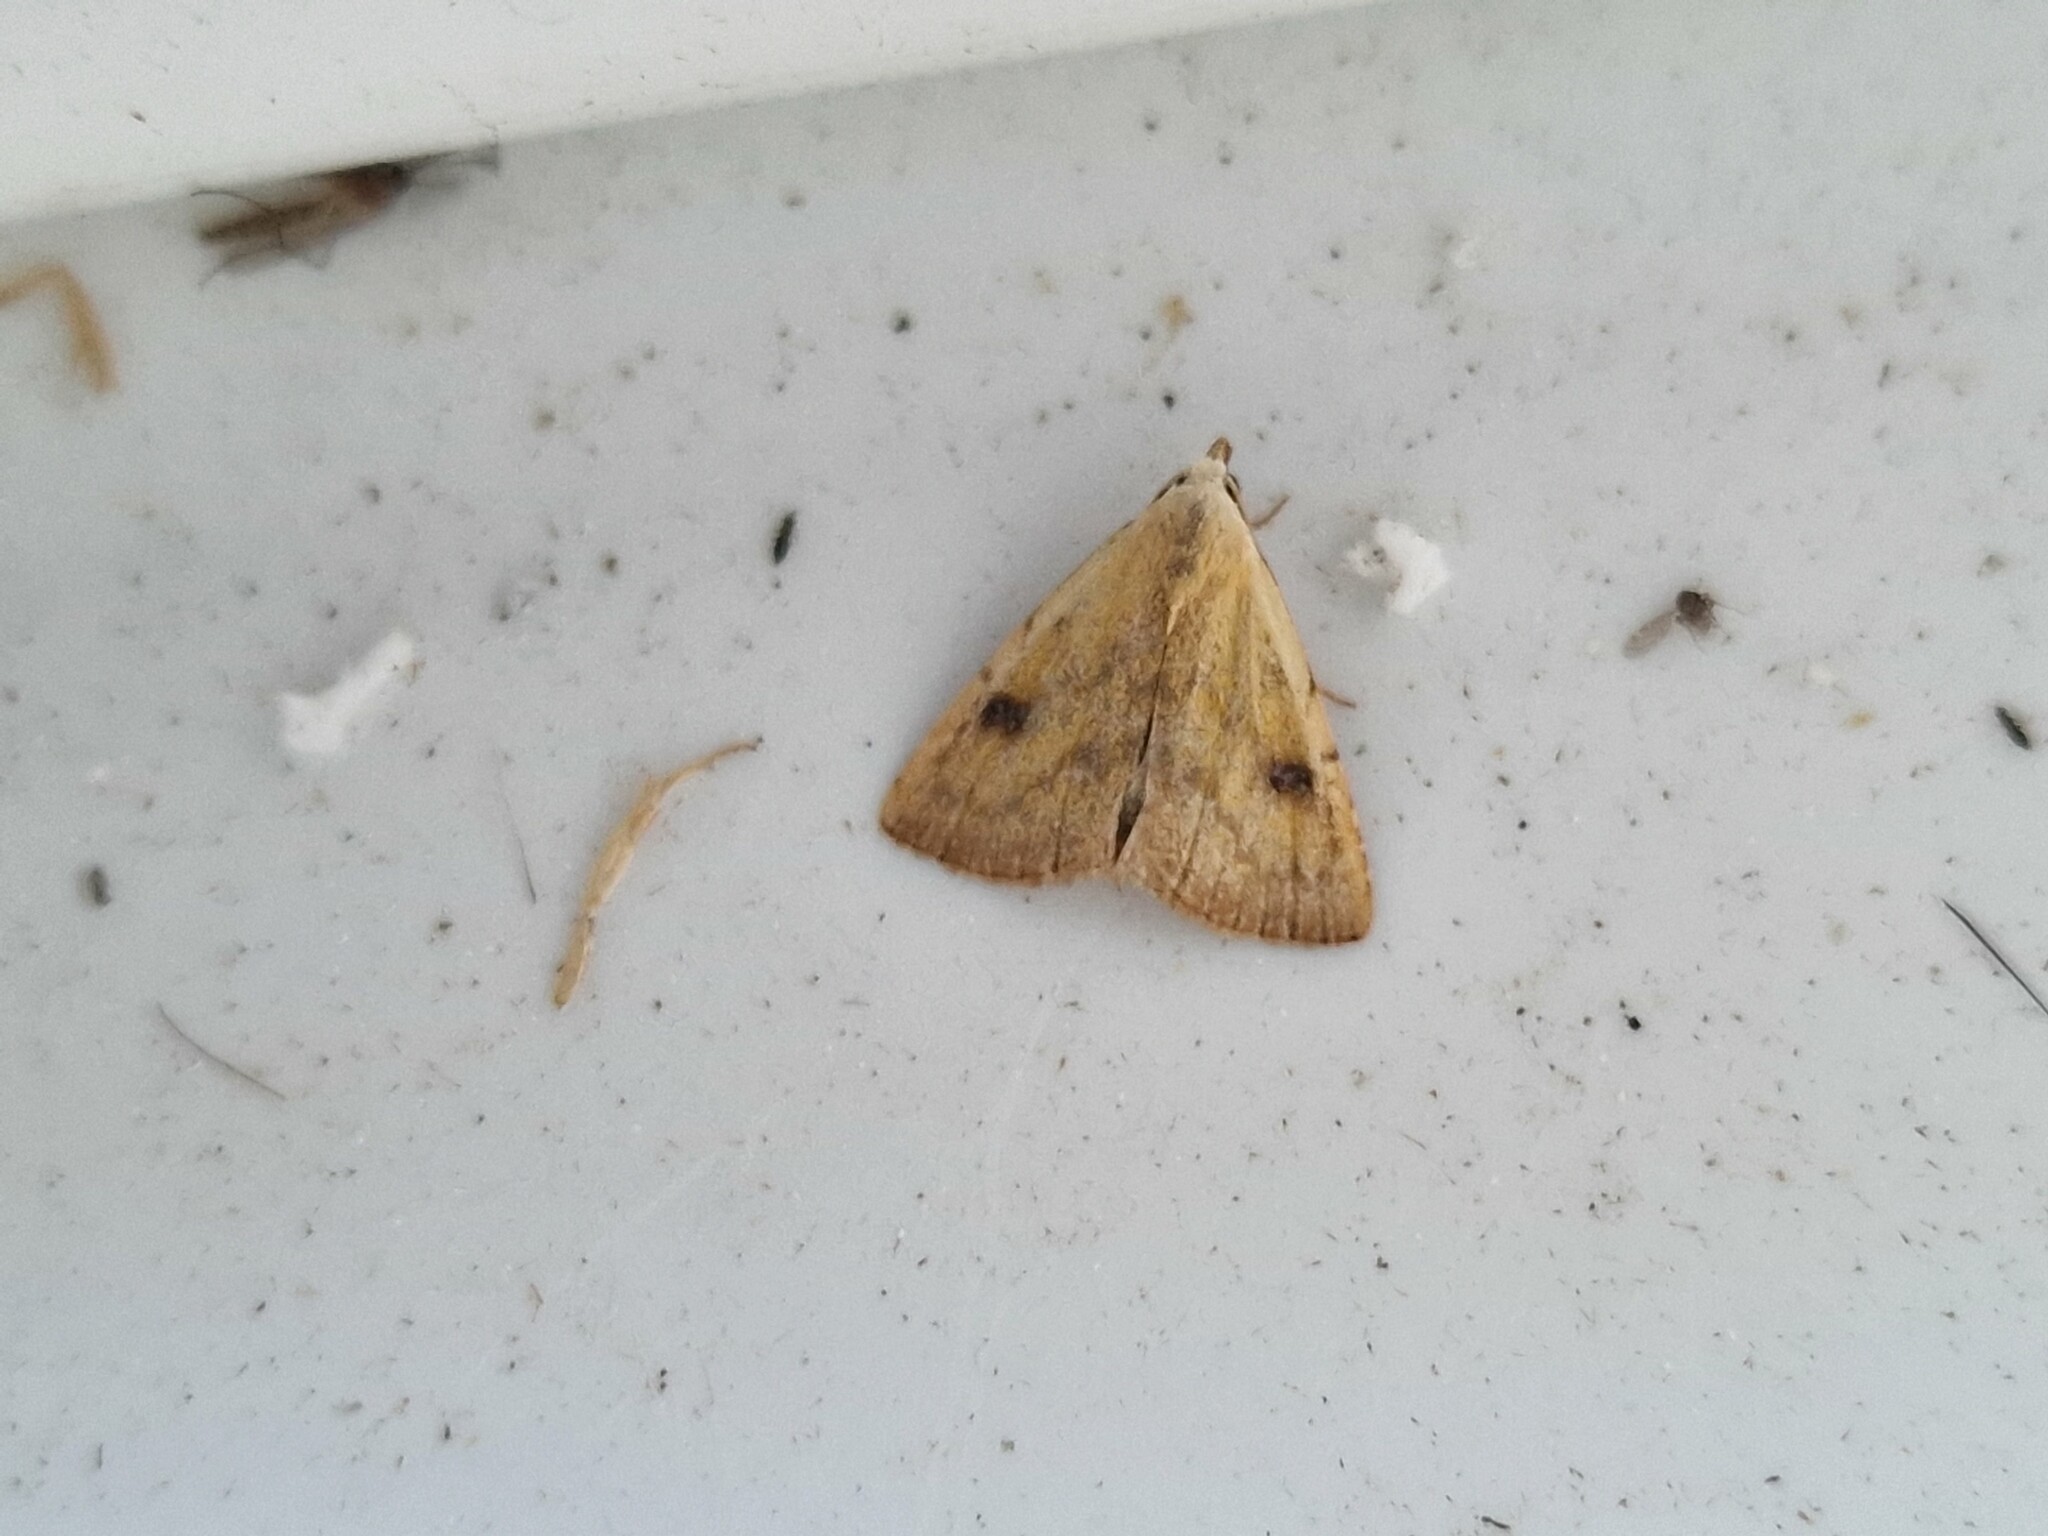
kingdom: Animalia
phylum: Arthropoda
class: Insecta
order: Lepidoptera
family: Erebidae
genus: Rivula
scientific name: Rivula sericealis
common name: Straw dot
